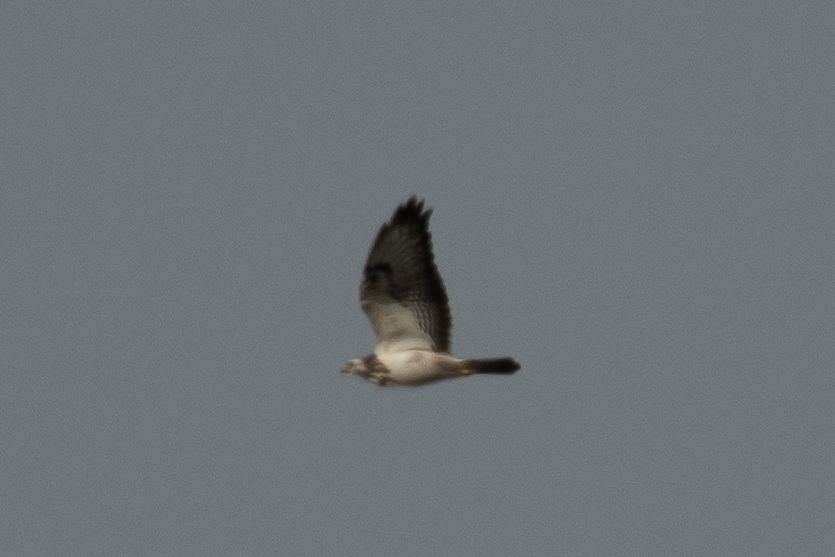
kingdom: Animalia
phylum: Chordata
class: Aves
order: Accipitriformes
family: Accipitridae
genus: Buteo
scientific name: Buteo buteo
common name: Common buzzard
